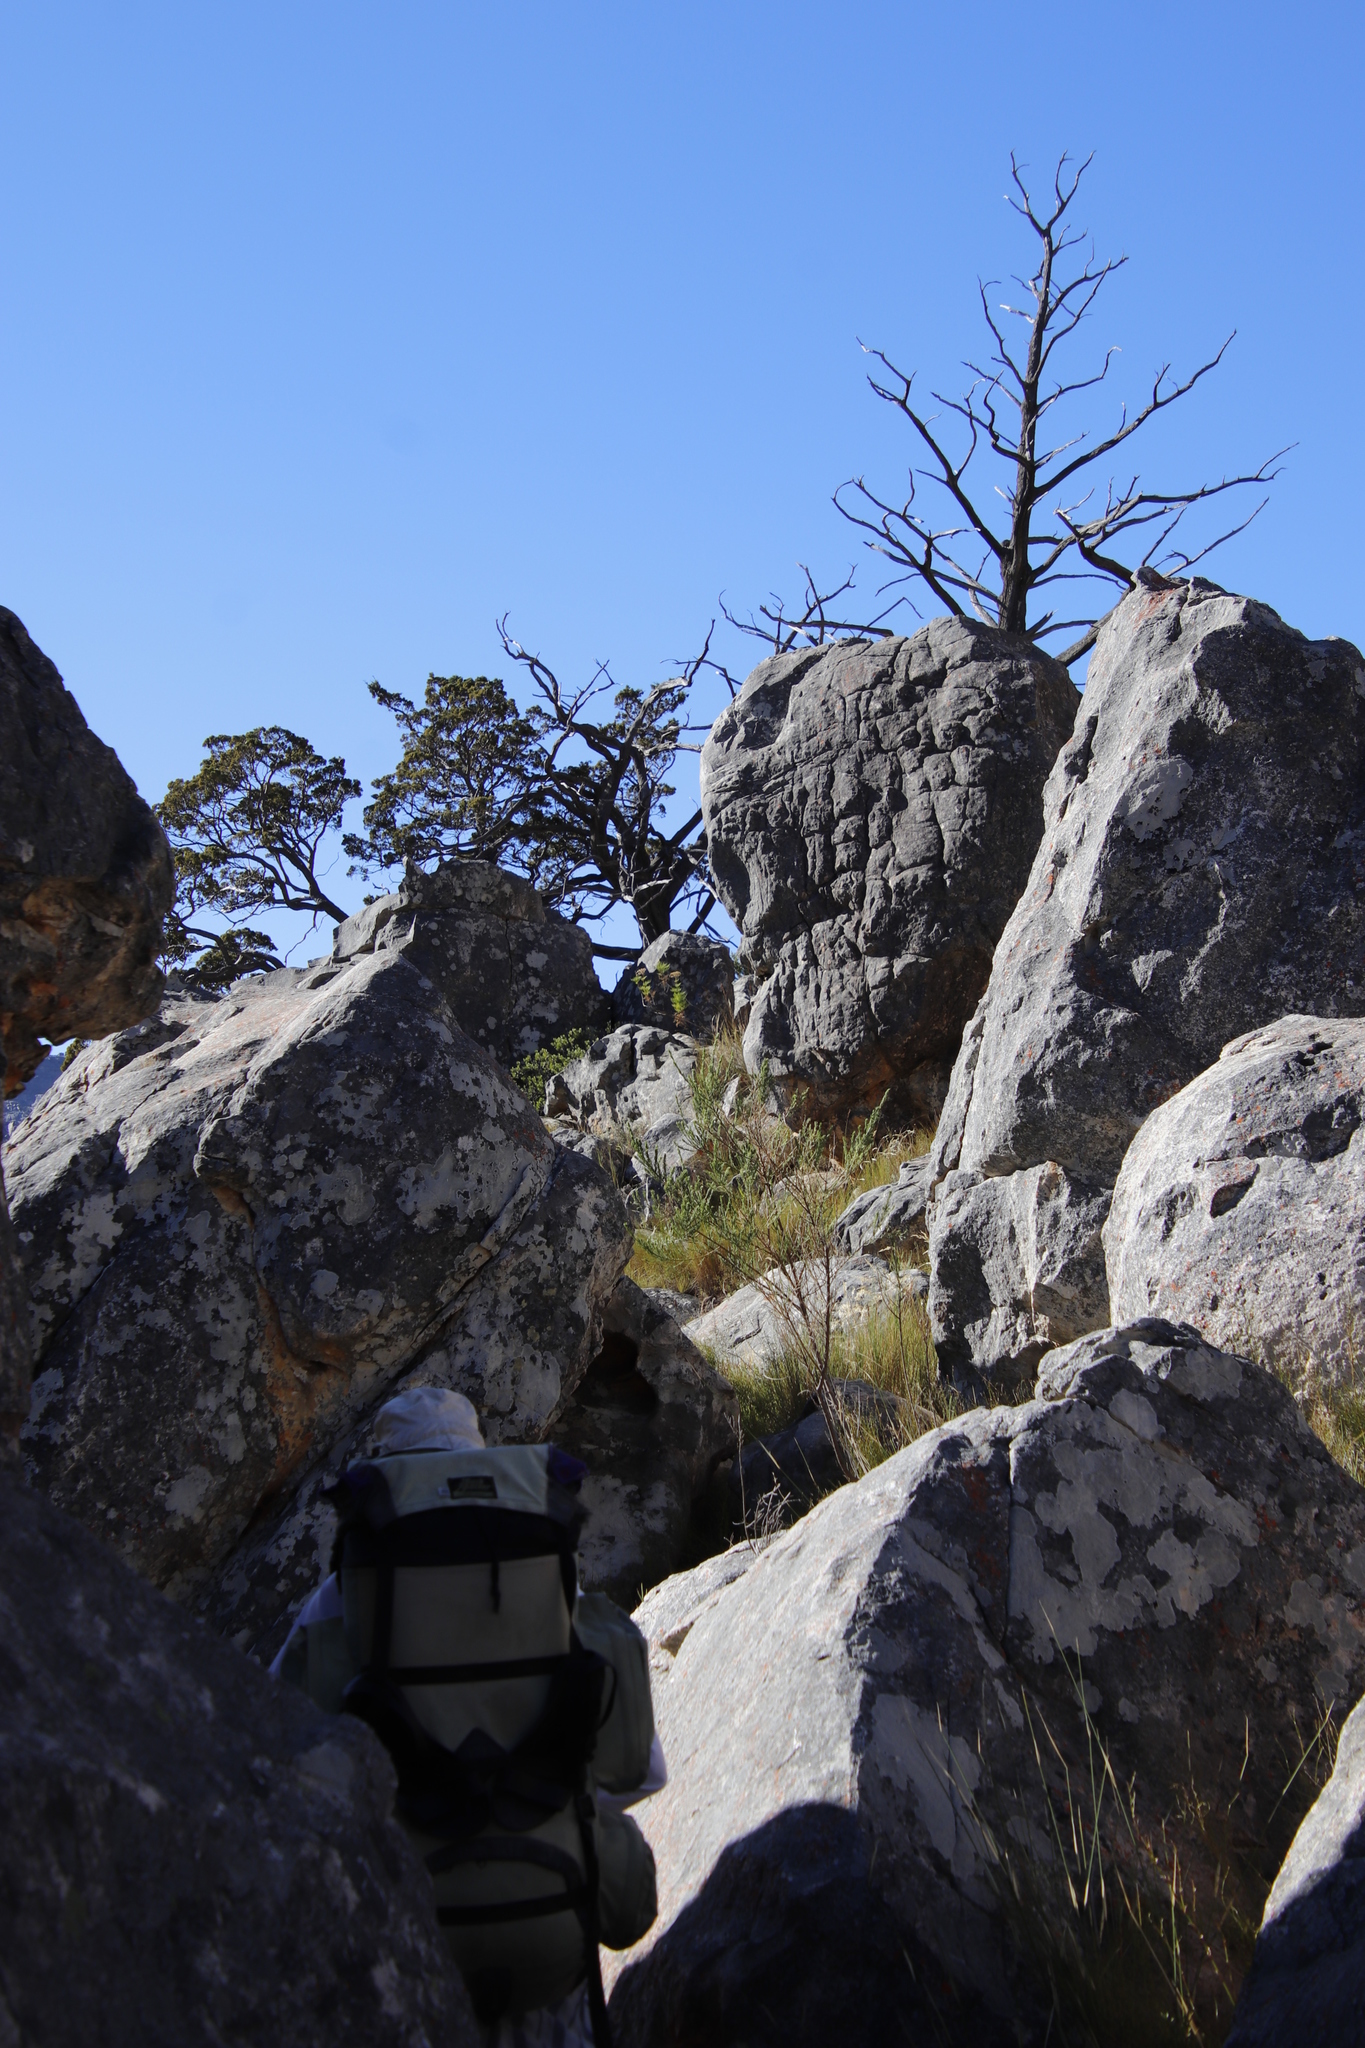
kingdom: Plantae
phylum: Tracheophyta
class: Pinopsida
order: Pinales
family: Cupressaceae
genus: Widdringtonia
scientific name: Widdringtonia nodiflora
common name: Cape cypress
